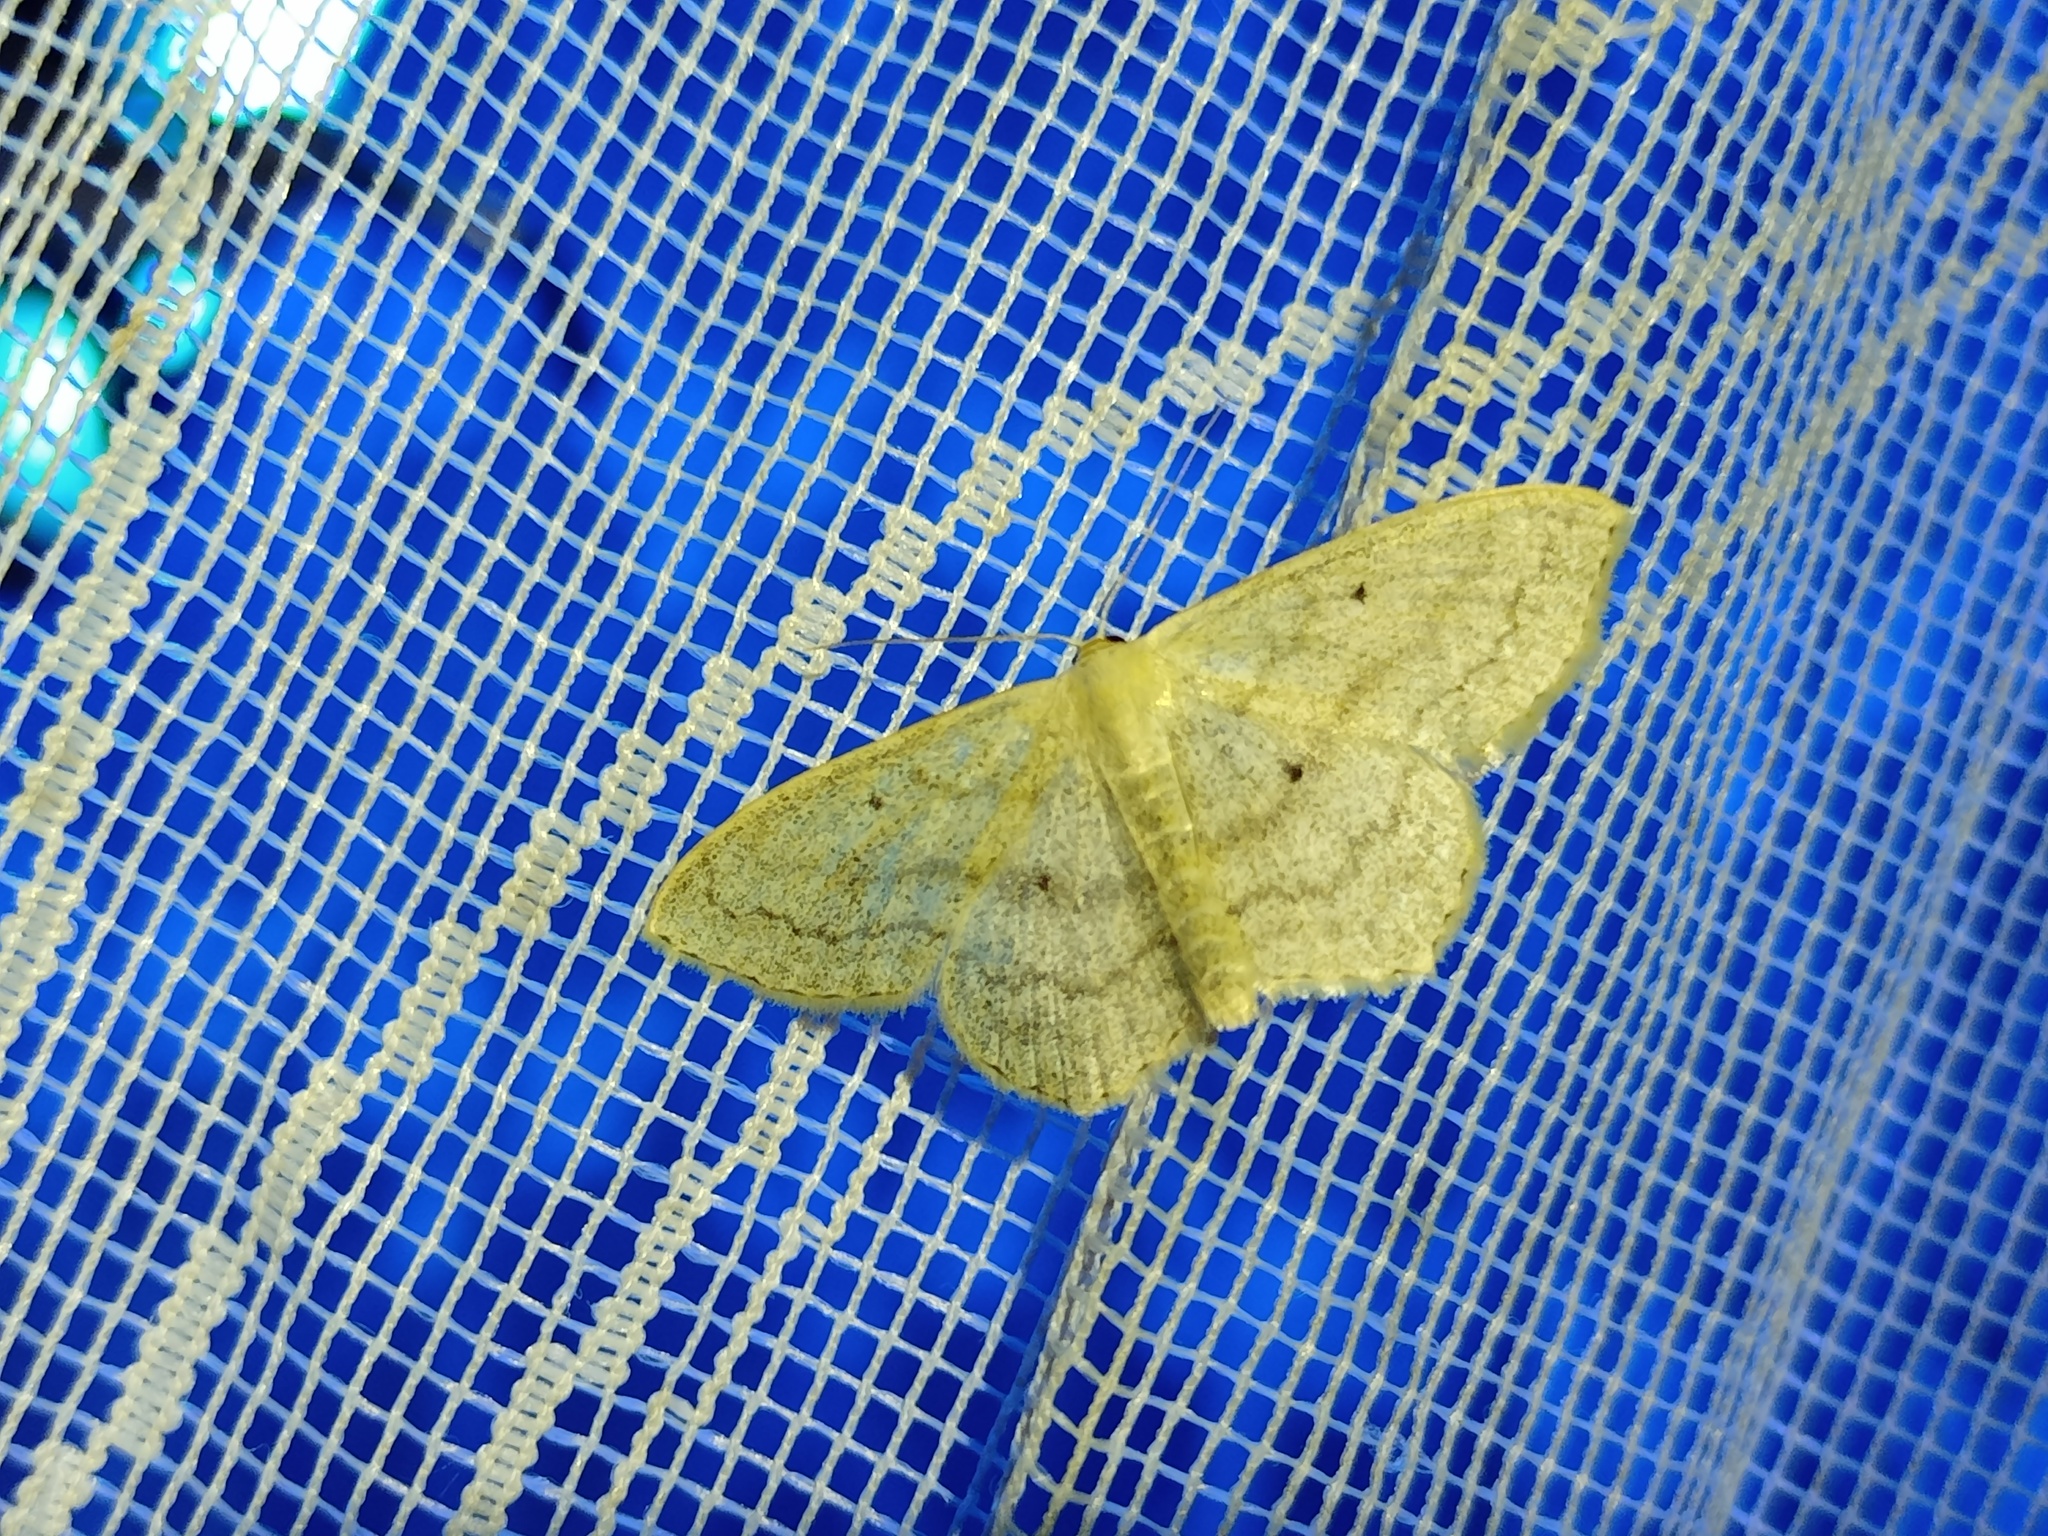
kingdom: Animalia
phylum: Arthropoda
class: Insecta
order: Lepidoptera
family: Geometridae
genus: Scopula
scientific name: Scopula nigropunctata
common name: Sub-angled wave
